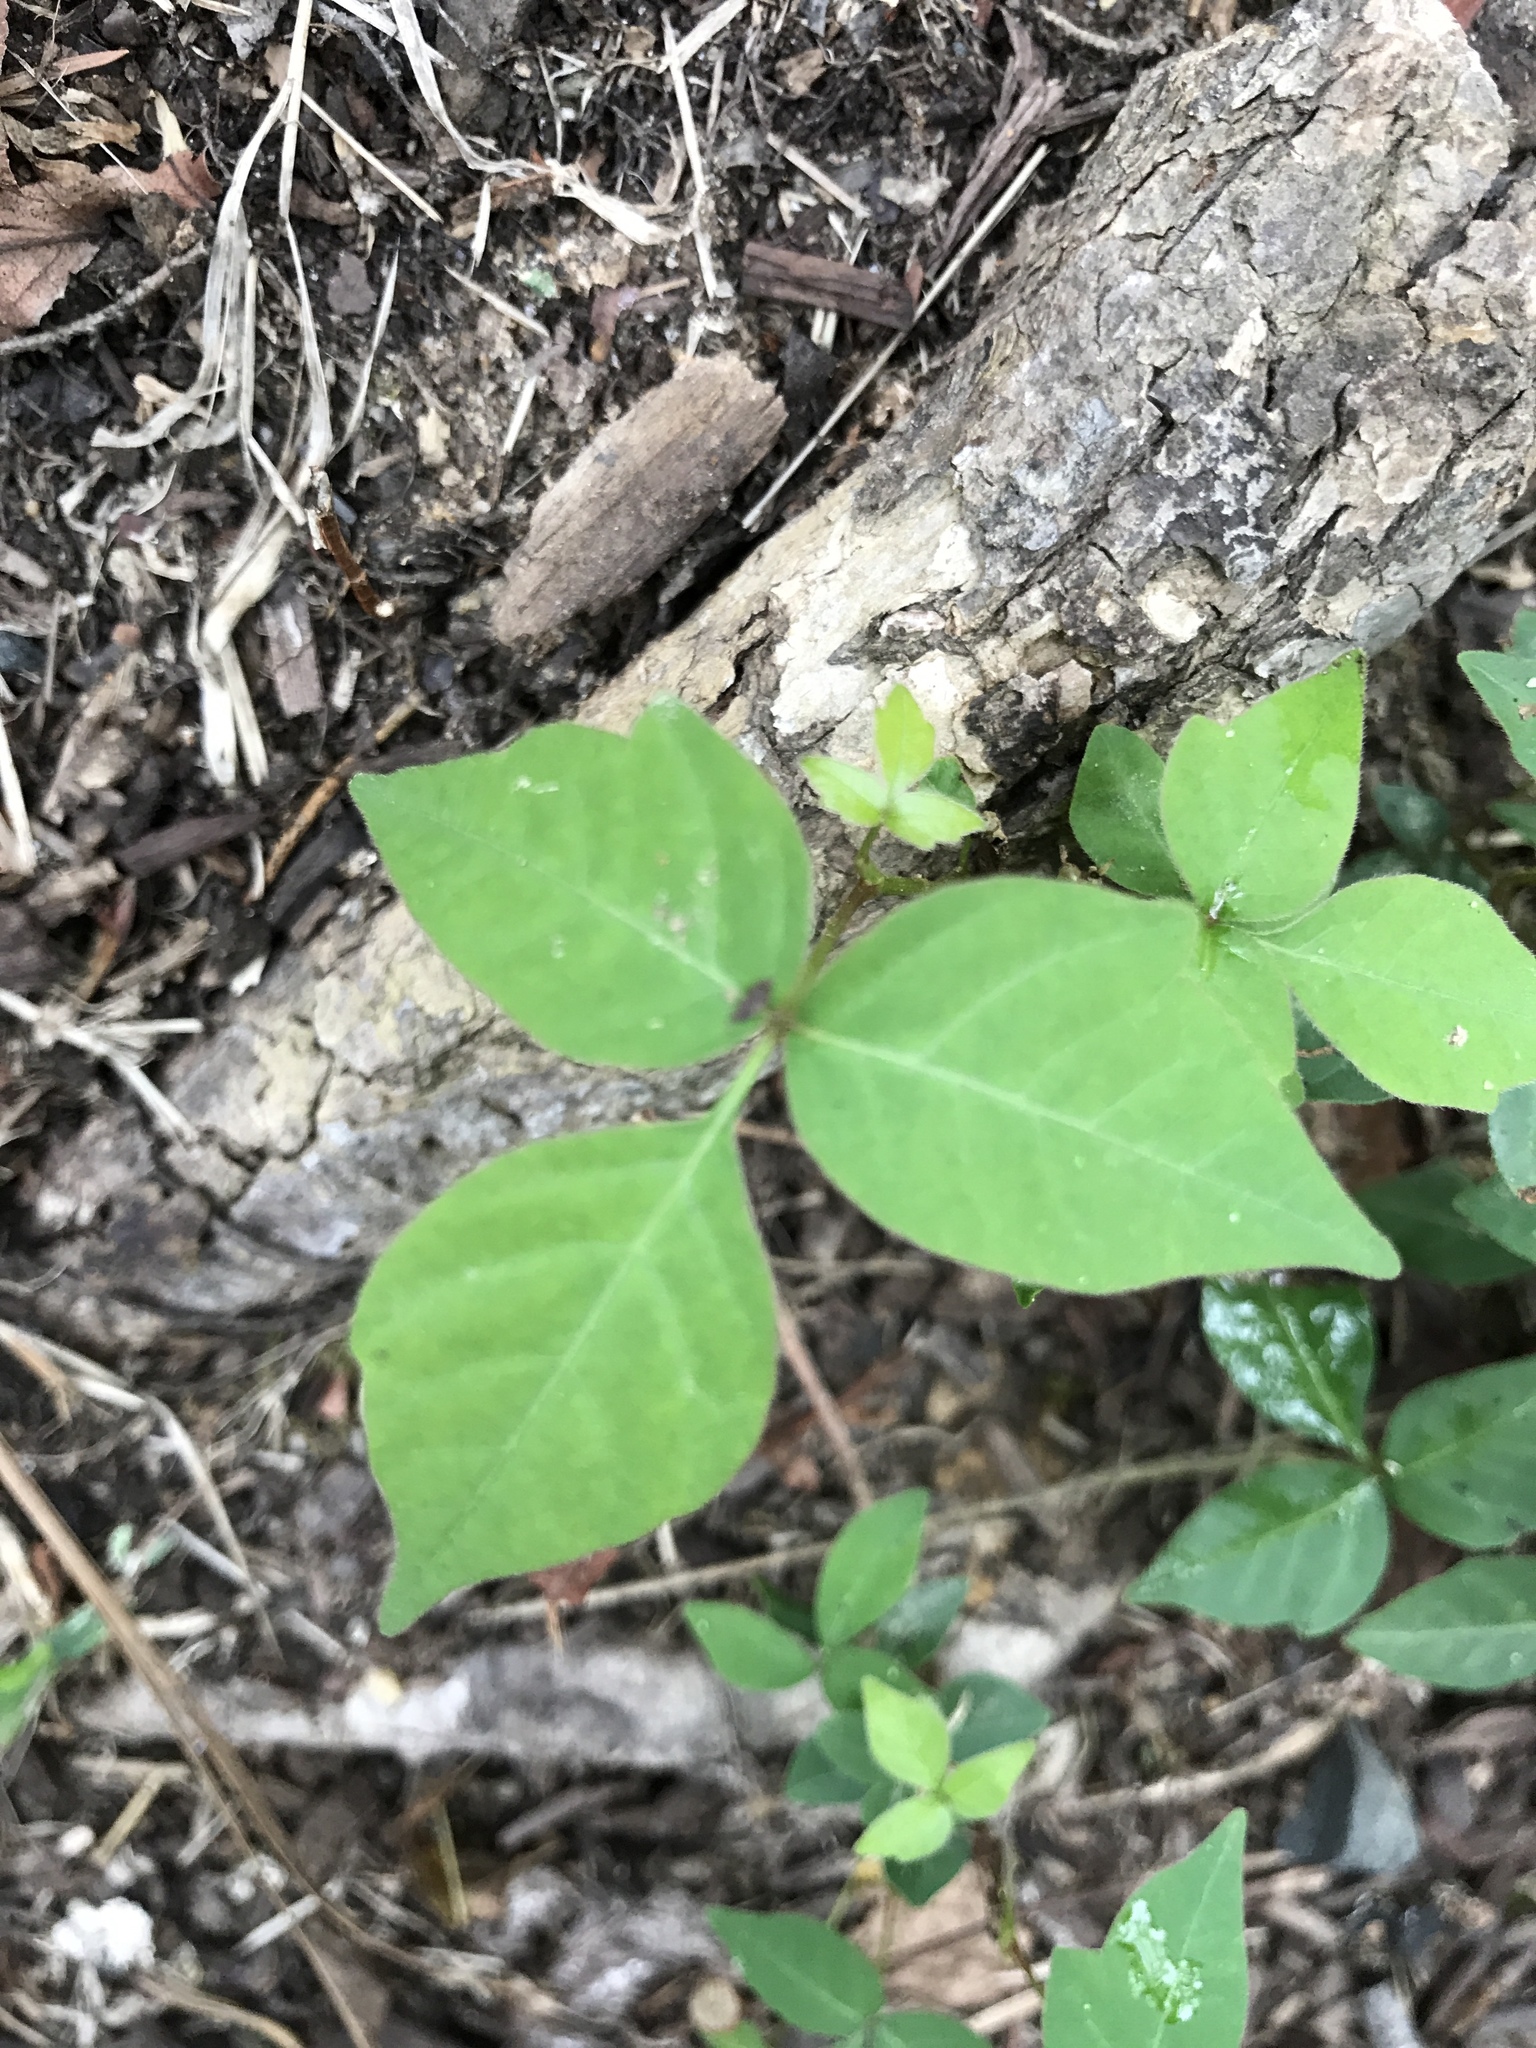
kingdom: Plantae
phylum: Tracheophyta
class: Magnoliopsida
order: Sapindales
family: Anacardiaceae
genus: Toxicodendron
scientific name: Toxicodendron radicans
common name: Poison ivy
